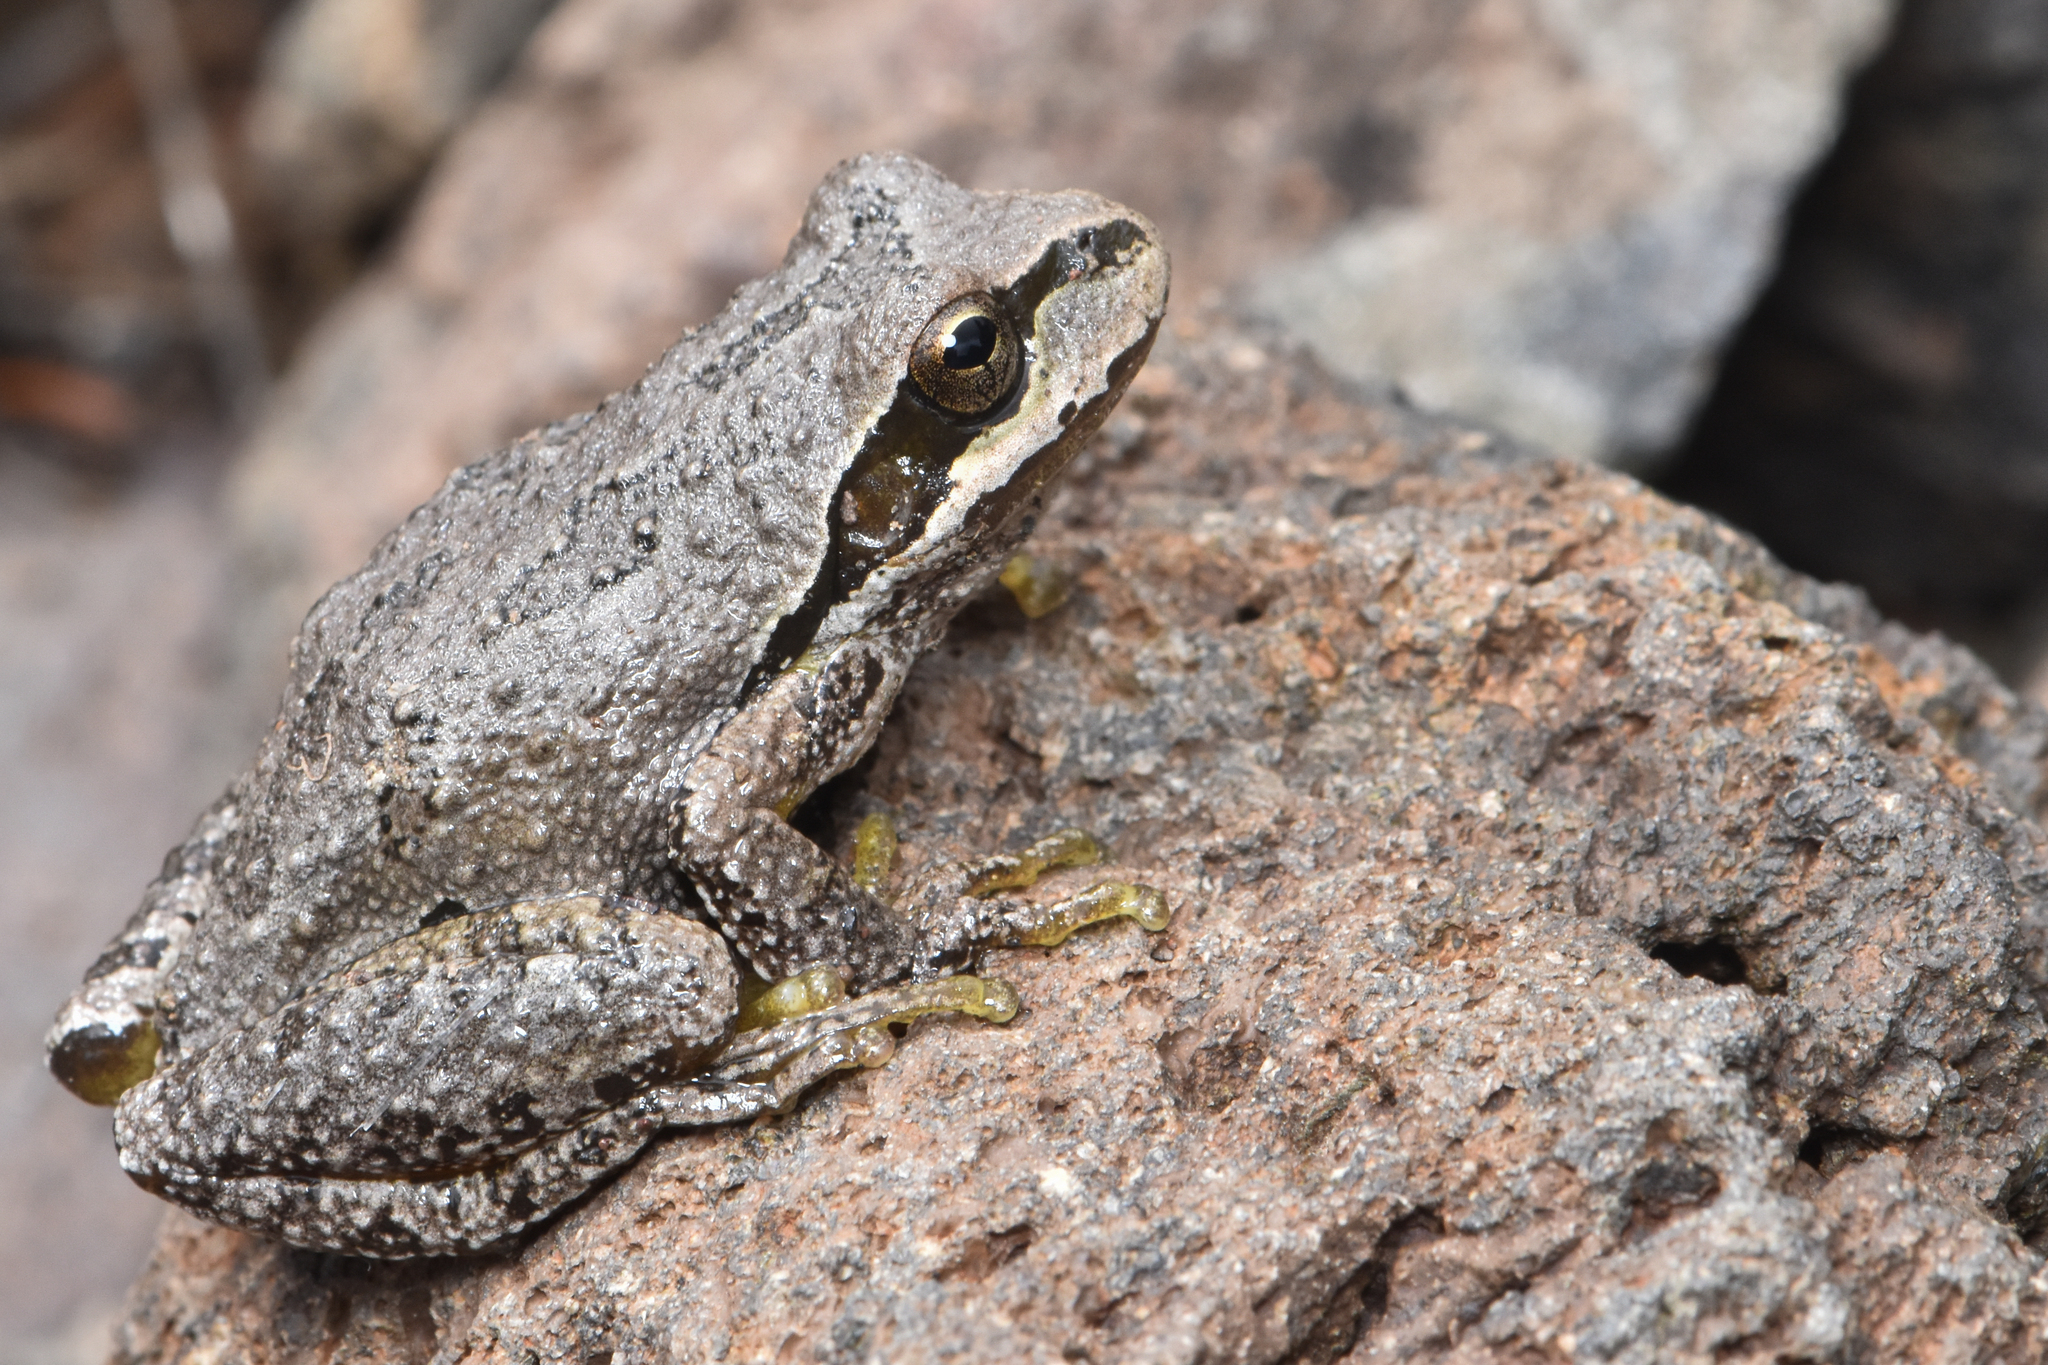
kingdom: Animalia
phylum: Chordata
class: Amphibia
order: Anura
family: Hylidae
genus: Pseudacris
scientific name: Pseudacris regilla
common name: Pacific chorus frog
